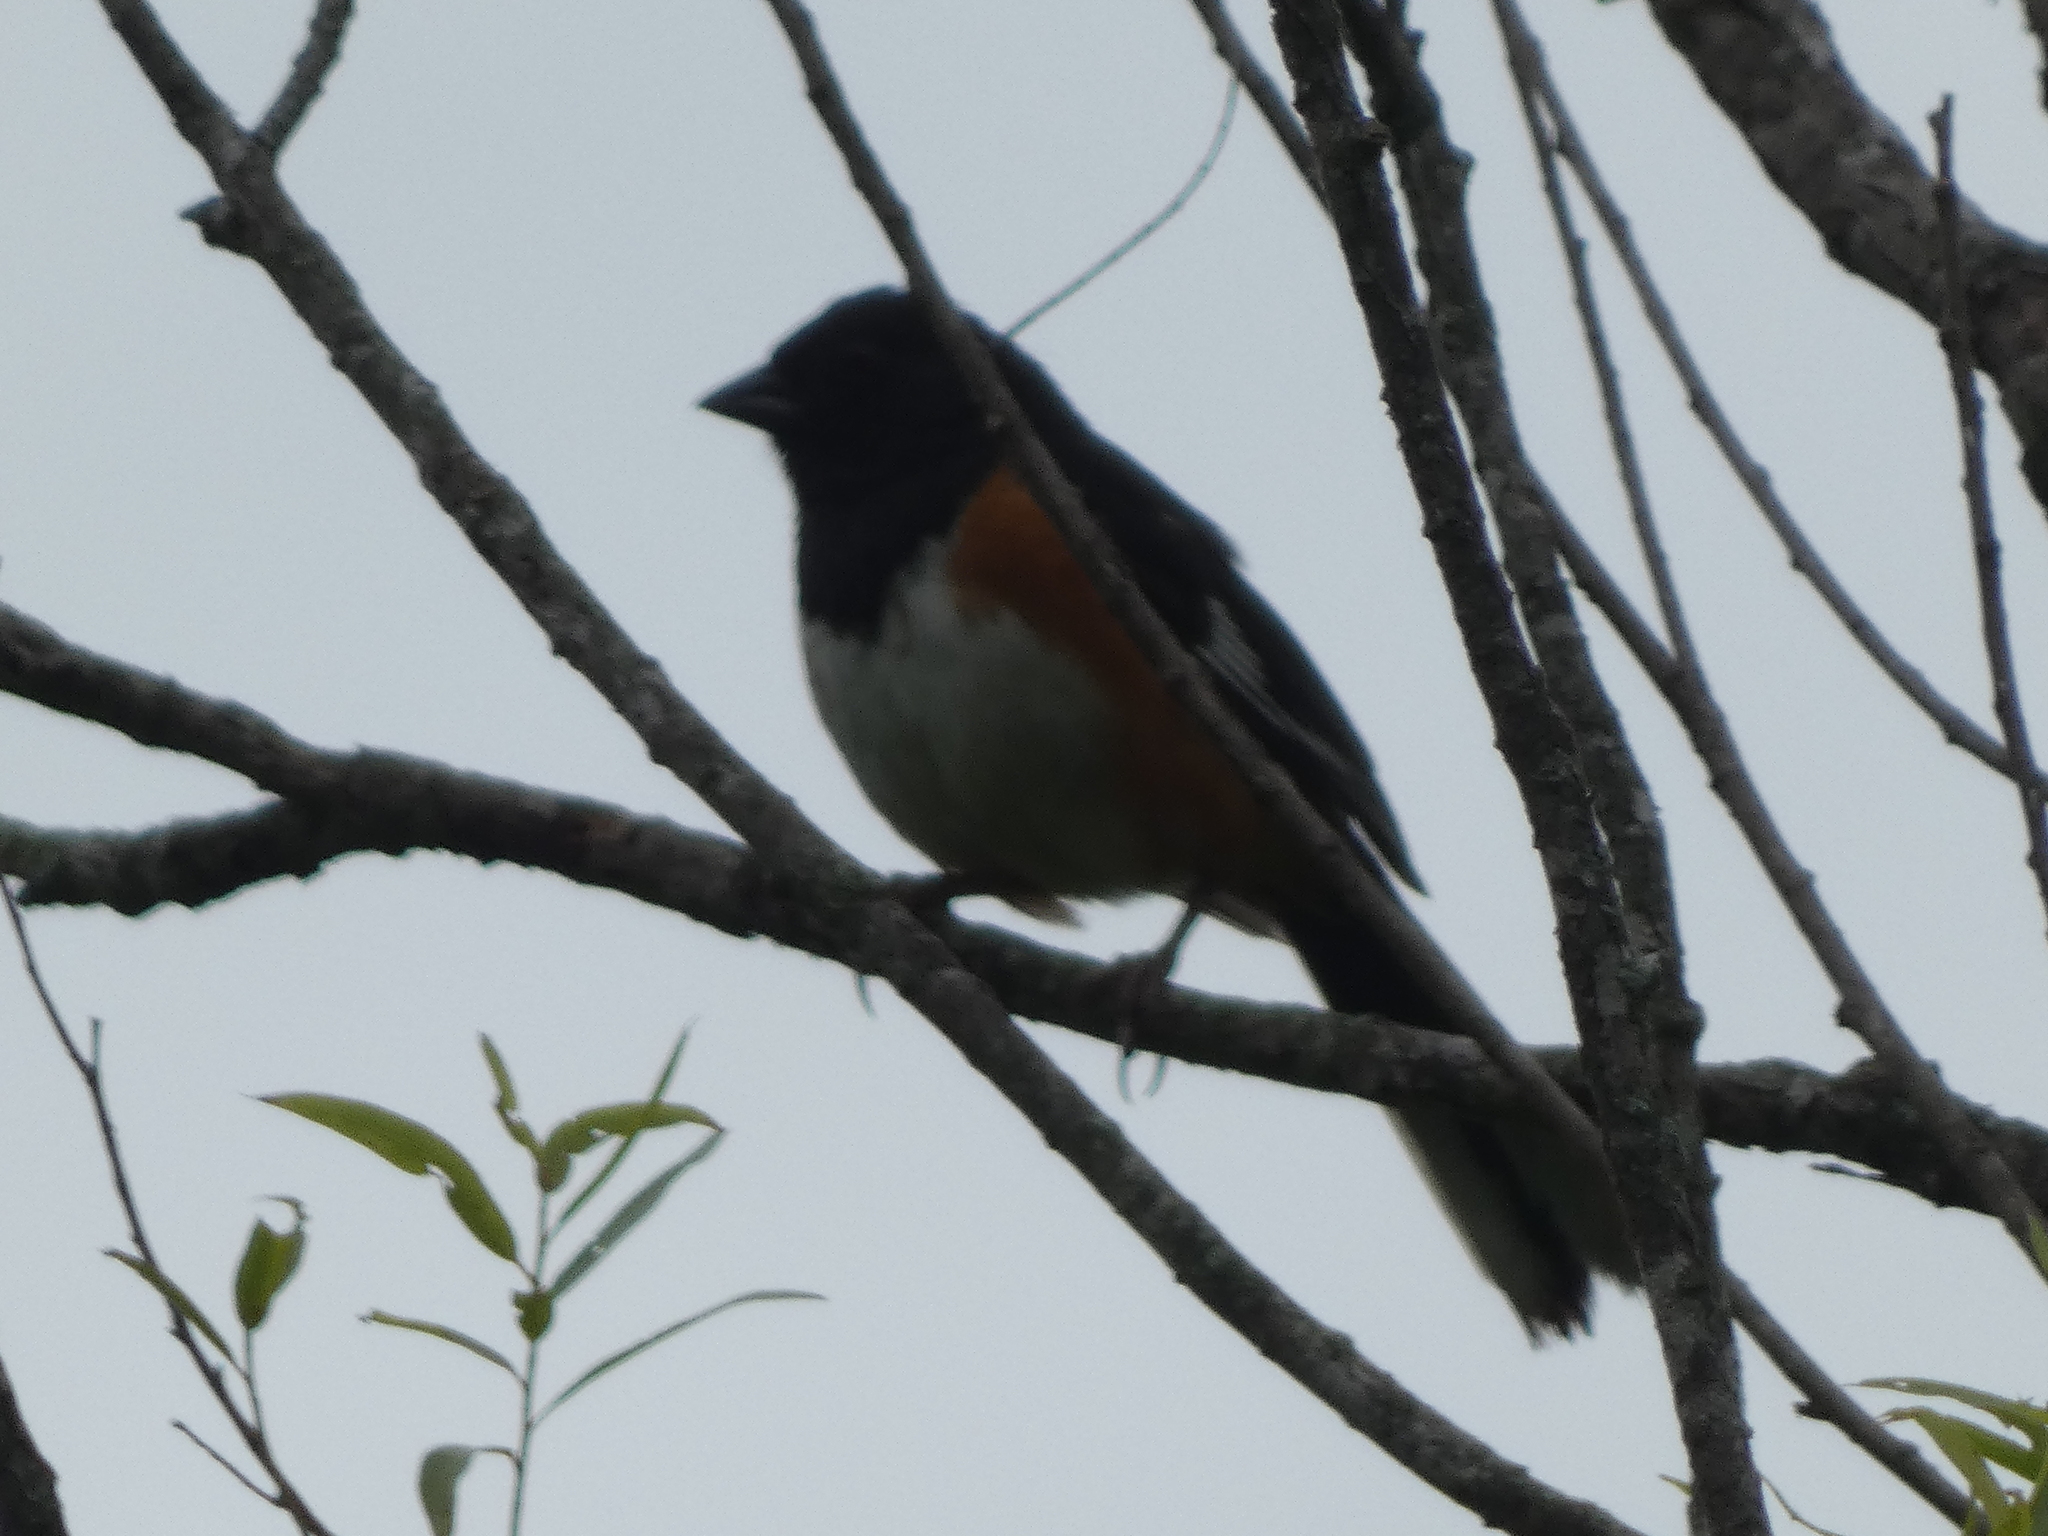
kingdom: Animalia
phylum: Chordata
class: Aves
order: Passeriformes
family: Passerellidae
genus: Pipilo
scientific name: Pipilo erythrophthalmus
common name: Eastern towhee
